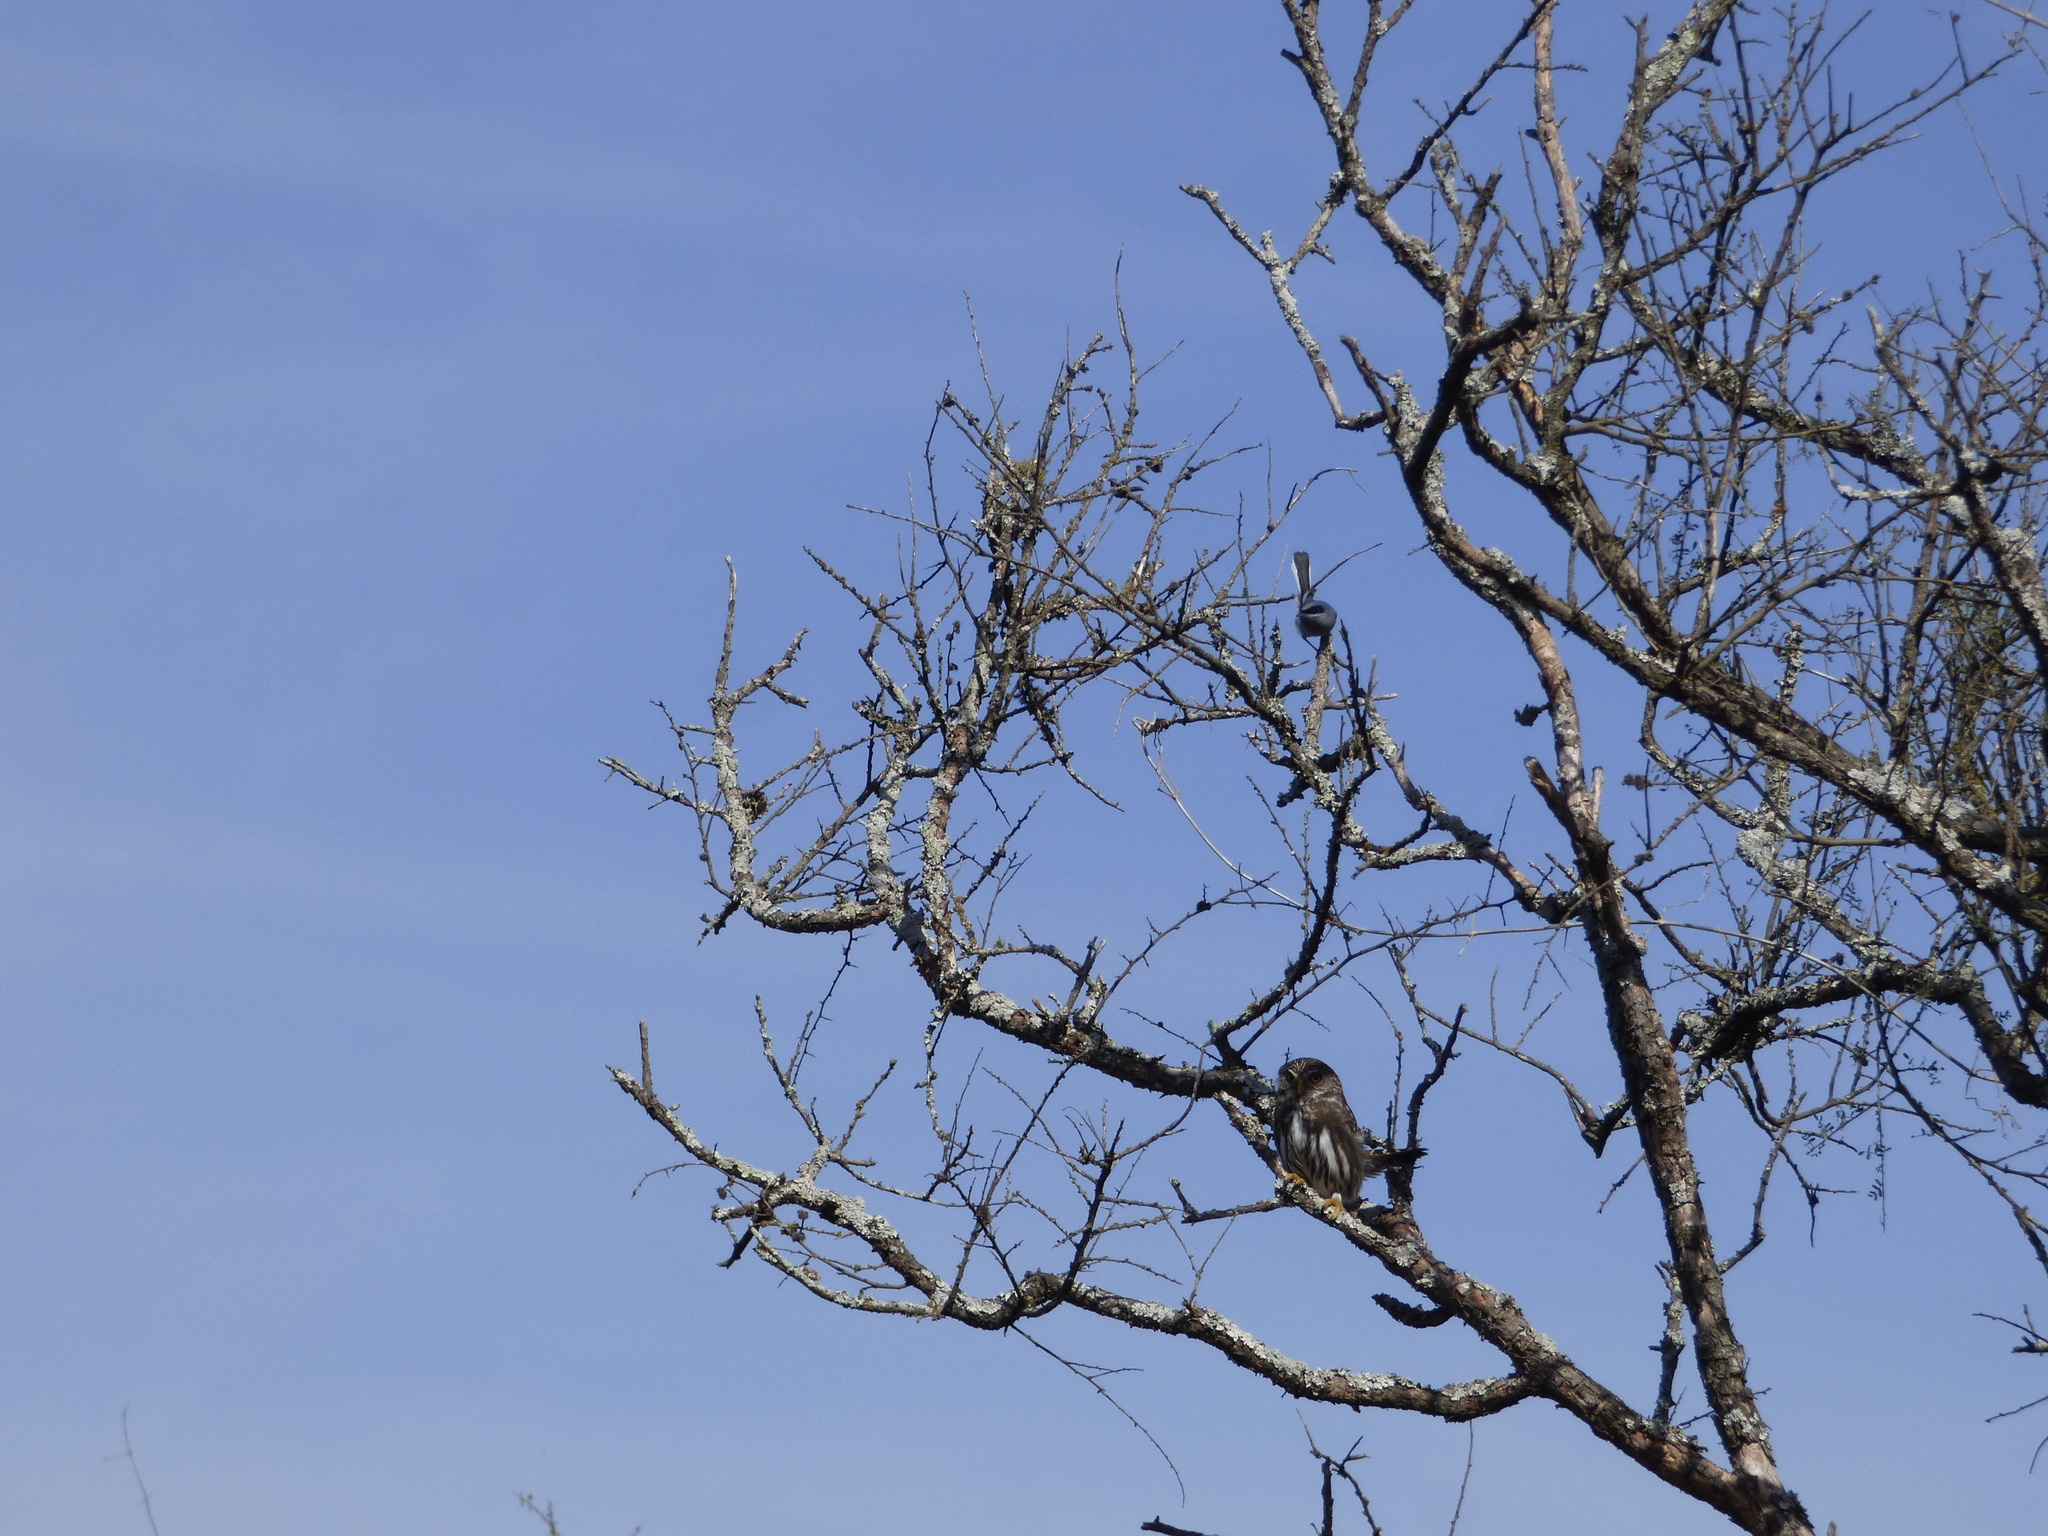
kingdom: Animalia
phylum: Chordata
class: Aves
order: Passeriformes
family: Polioptilidae
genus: Polioptila
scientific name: Polioptila dumicola
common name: Masked gnatcatcher
